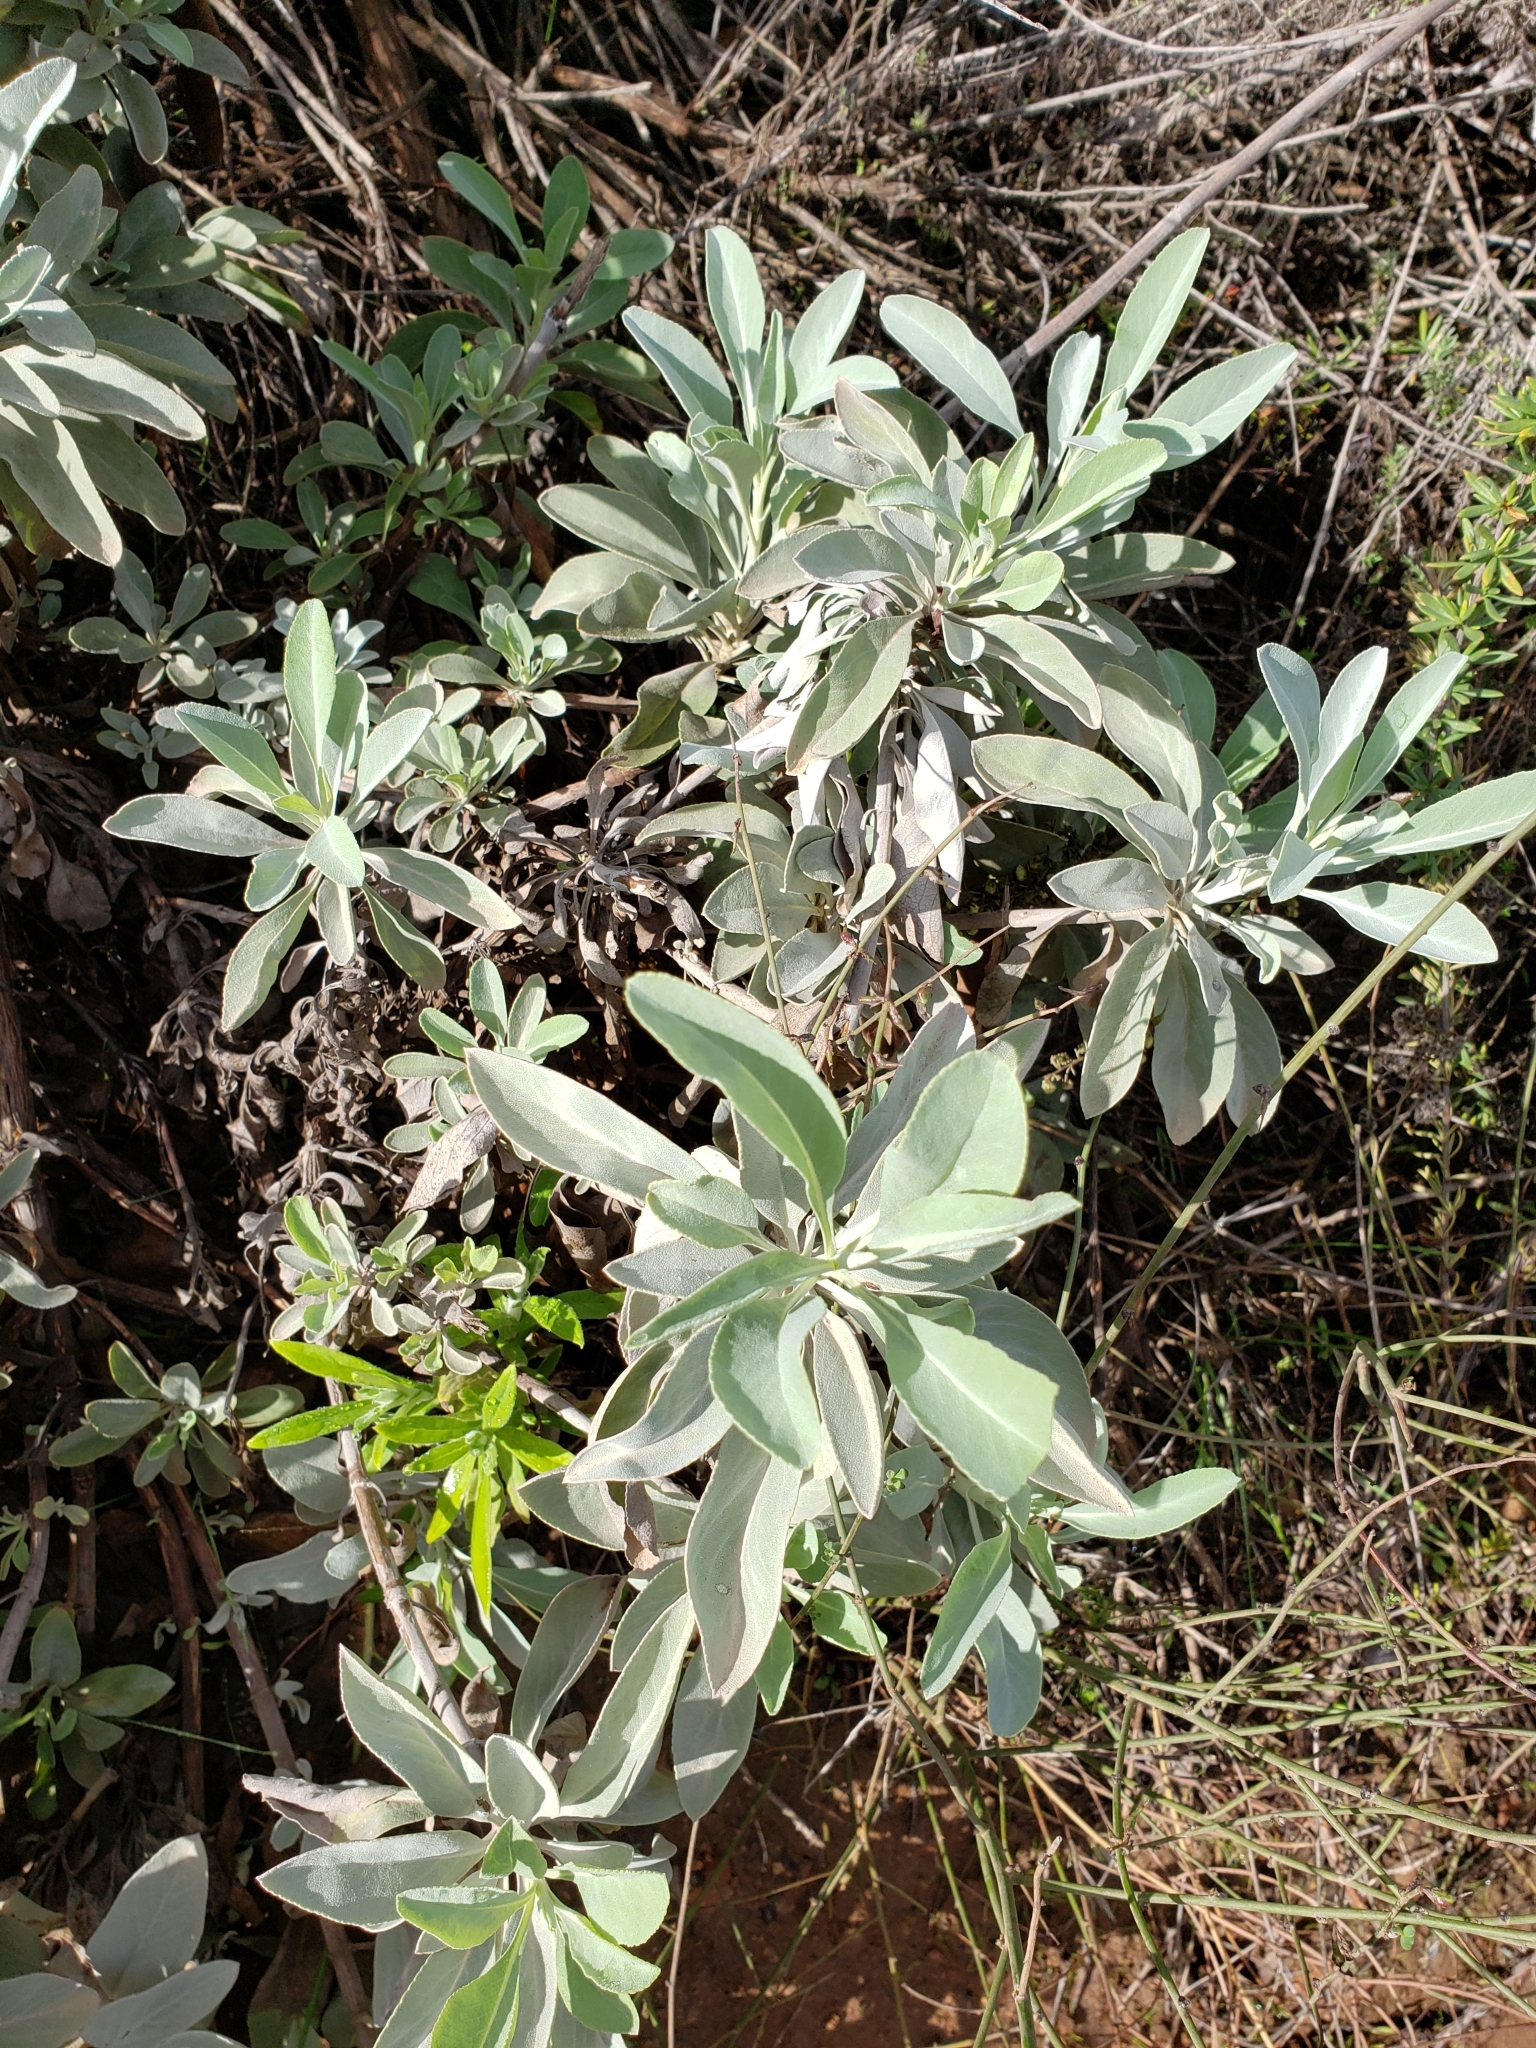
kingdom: Plantae
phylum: Tracheophyta
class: Magnoliopsida
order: Lamiales
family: Lamiaceae
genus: Salvia
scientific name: Salvia apiana
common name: White sage
